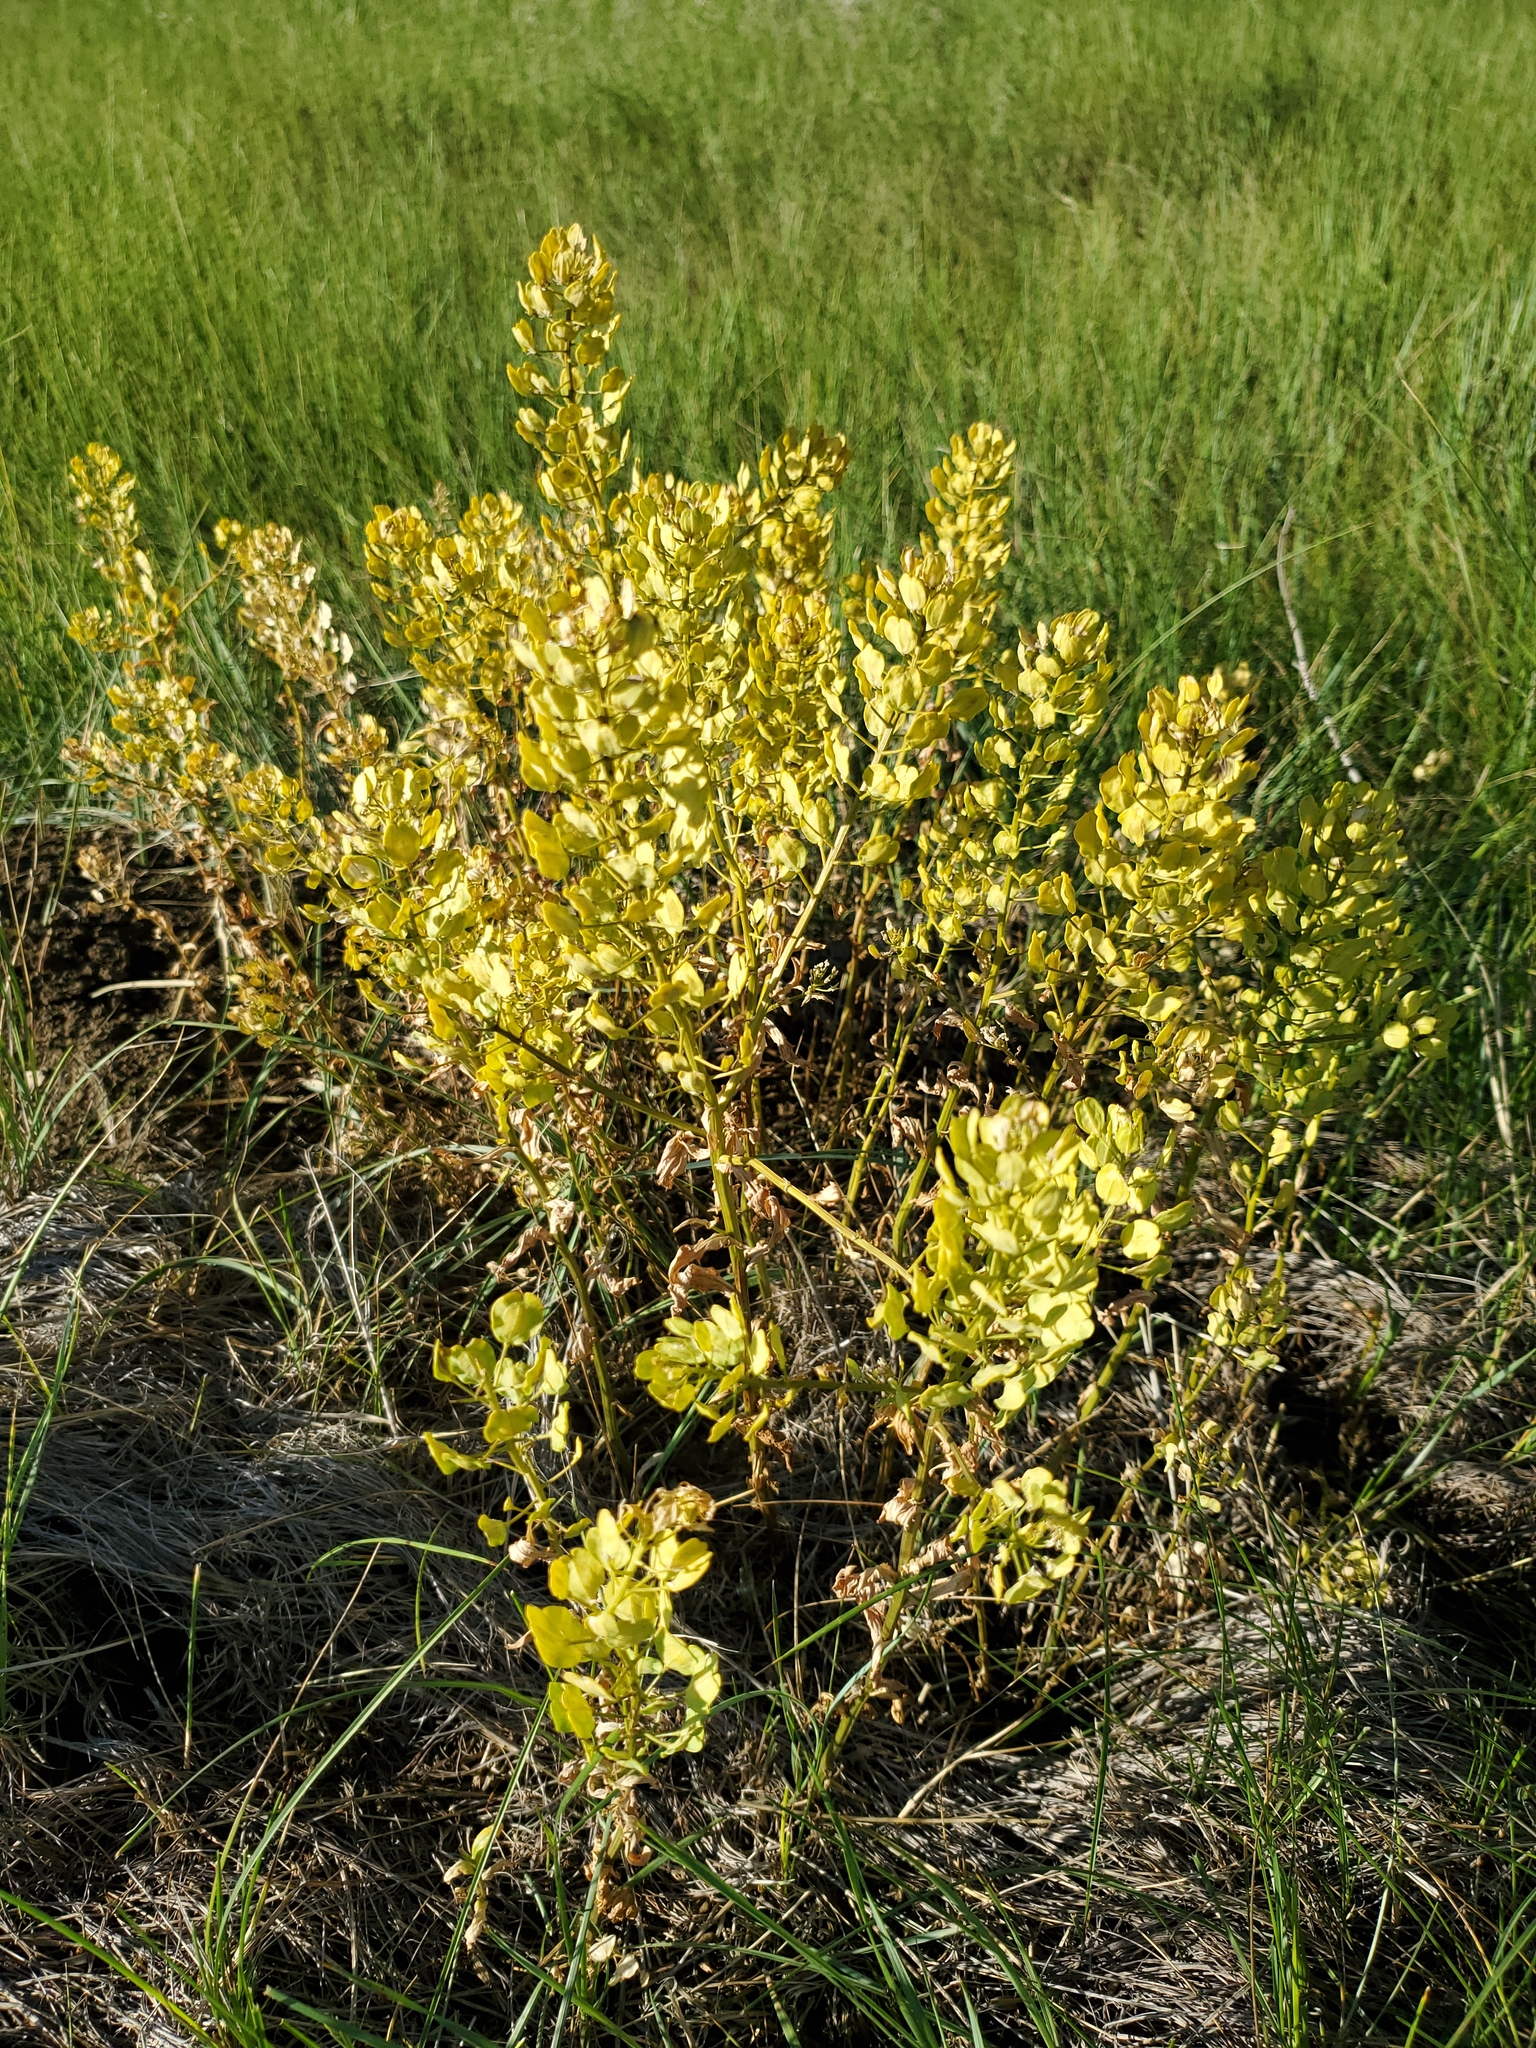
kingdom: Plantae
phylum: Tracheophyta
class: Magnoliopsida
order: Brassicales
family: Brassicaceae
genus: Thlaspi
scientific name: Thlaspi arvense
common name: Field pennycress
